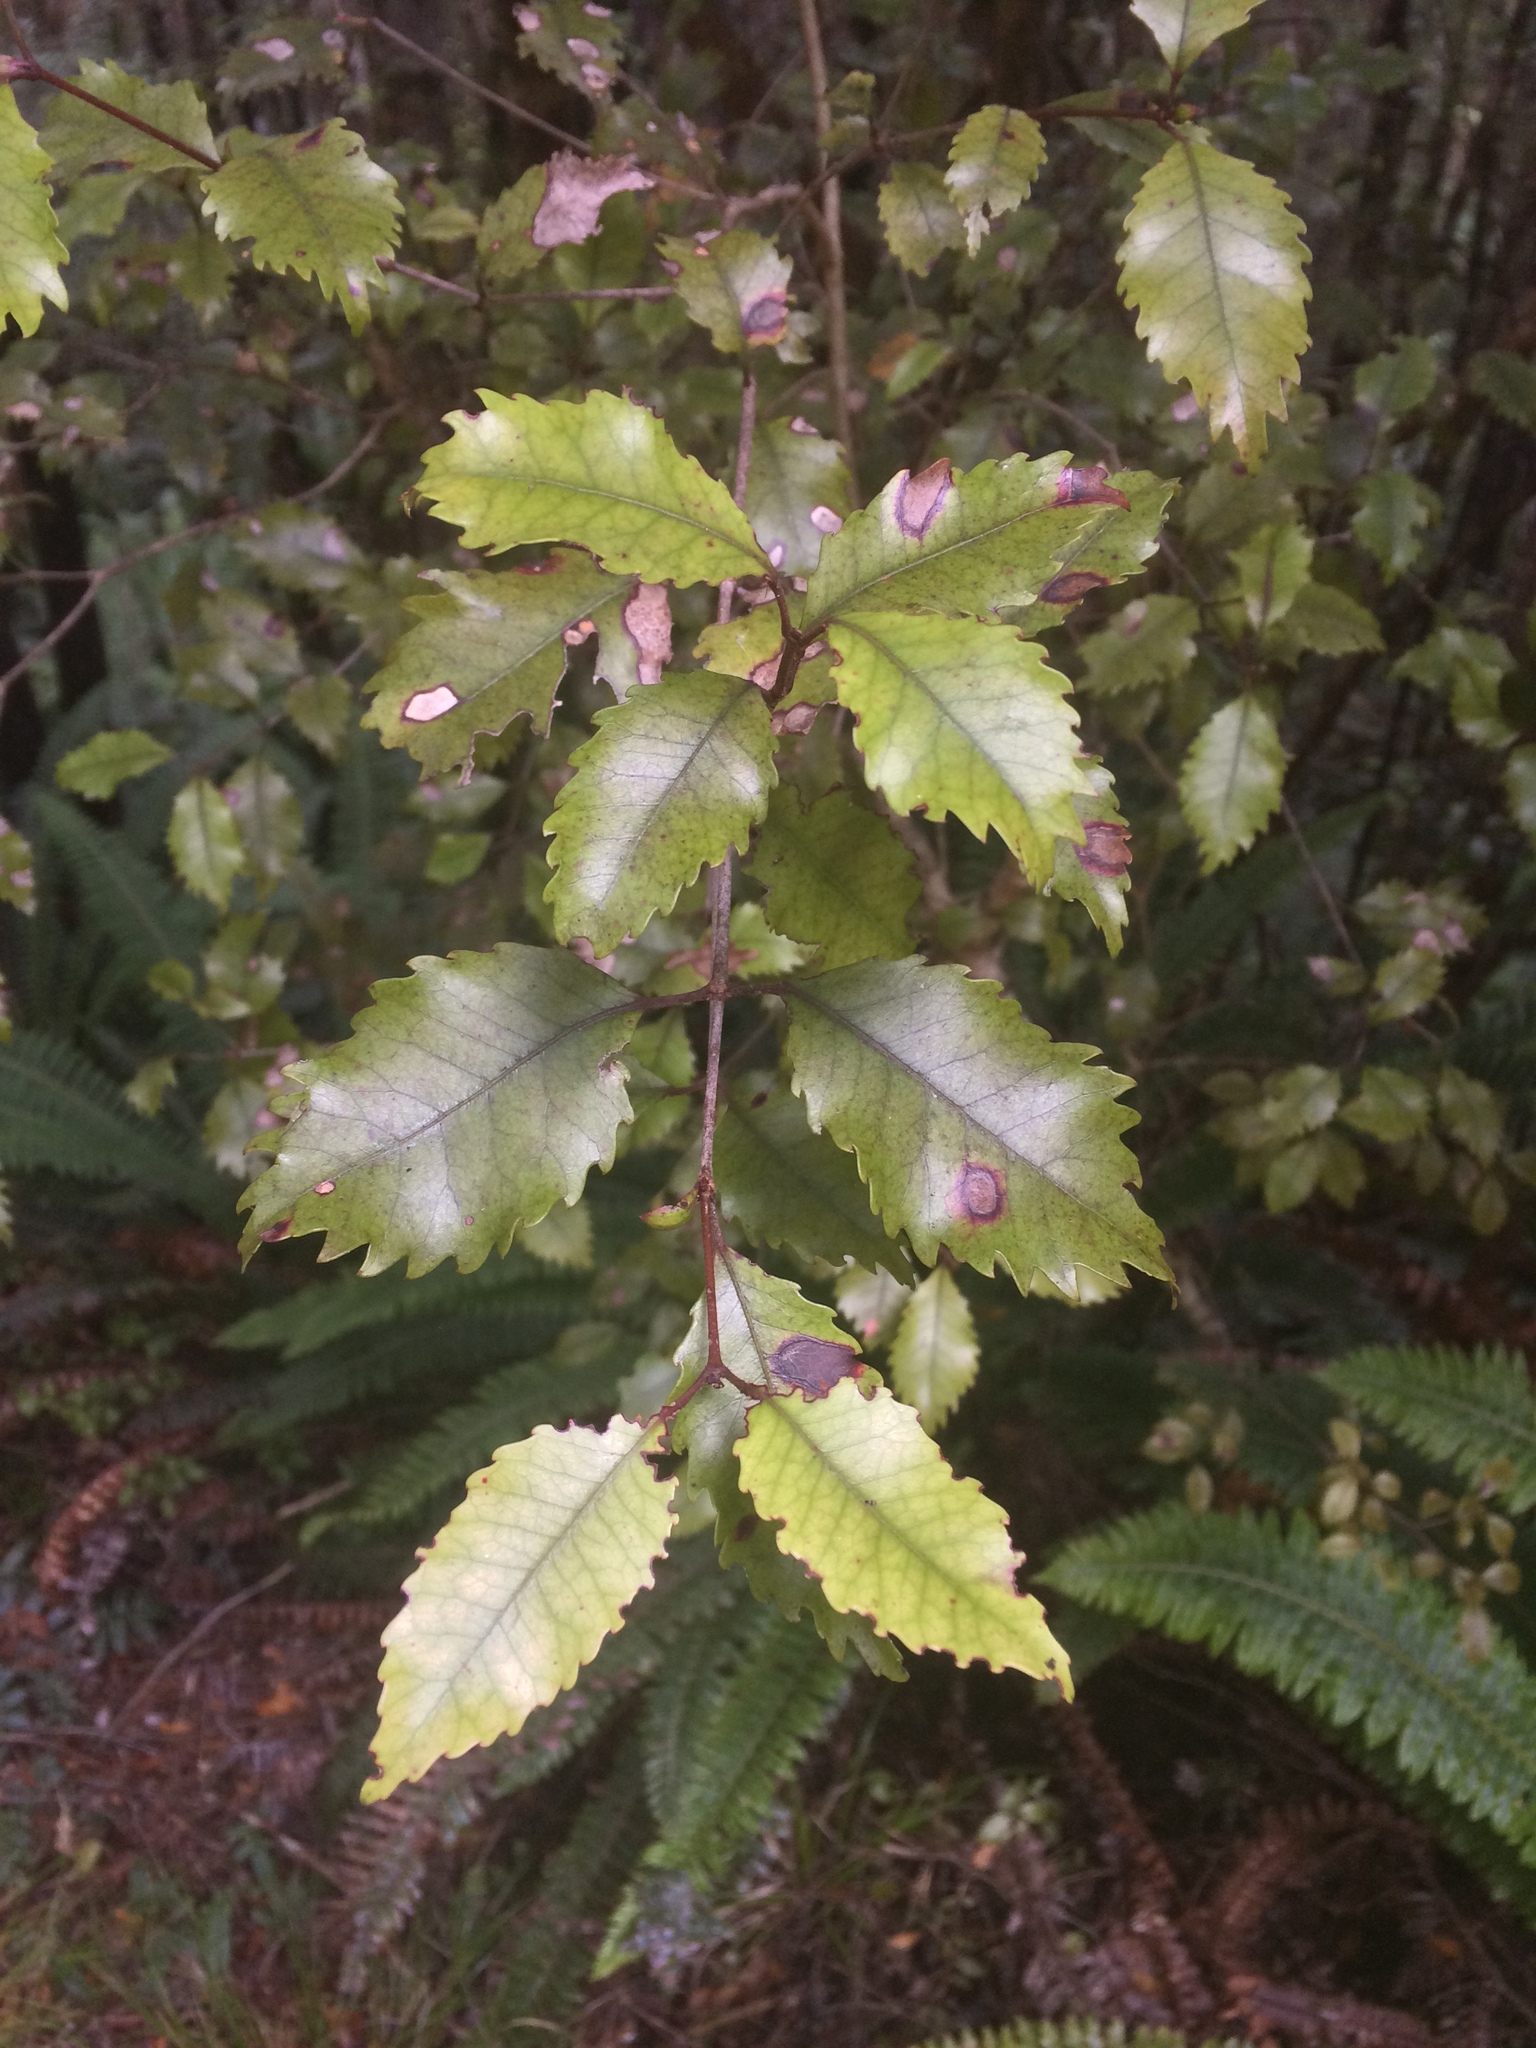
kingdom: Plantae
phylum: Tracheophyta
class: Magnoliopsida
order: Oxalidales
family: Cunoniaceae
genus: Pterophylla
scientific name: Pterophylla racemosa
